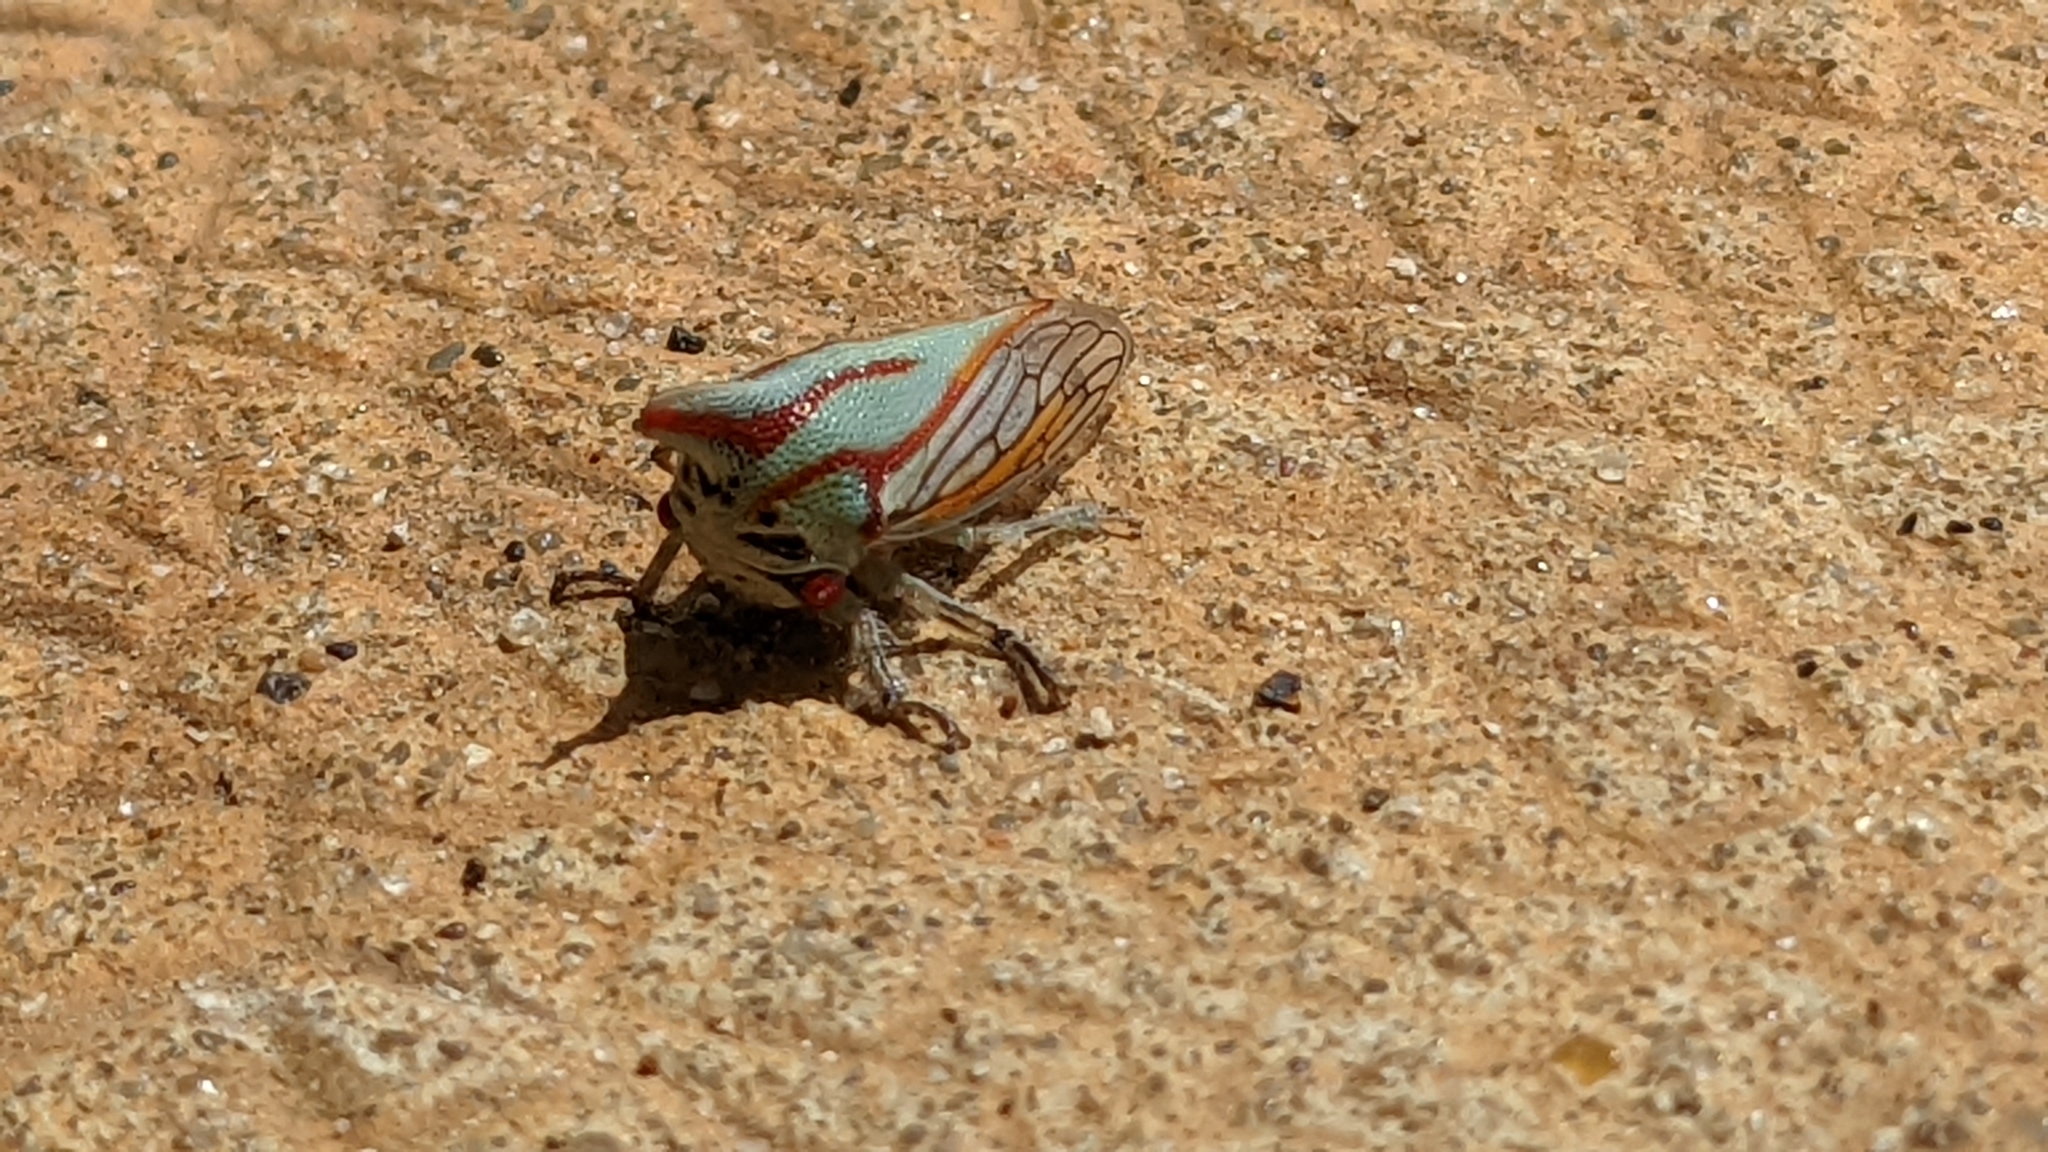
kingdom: Animalia
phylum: Arthropoda
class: Insecta
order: Hemiptera
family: Membracidae
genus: Platycotis
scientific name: Platycotis vittatus
